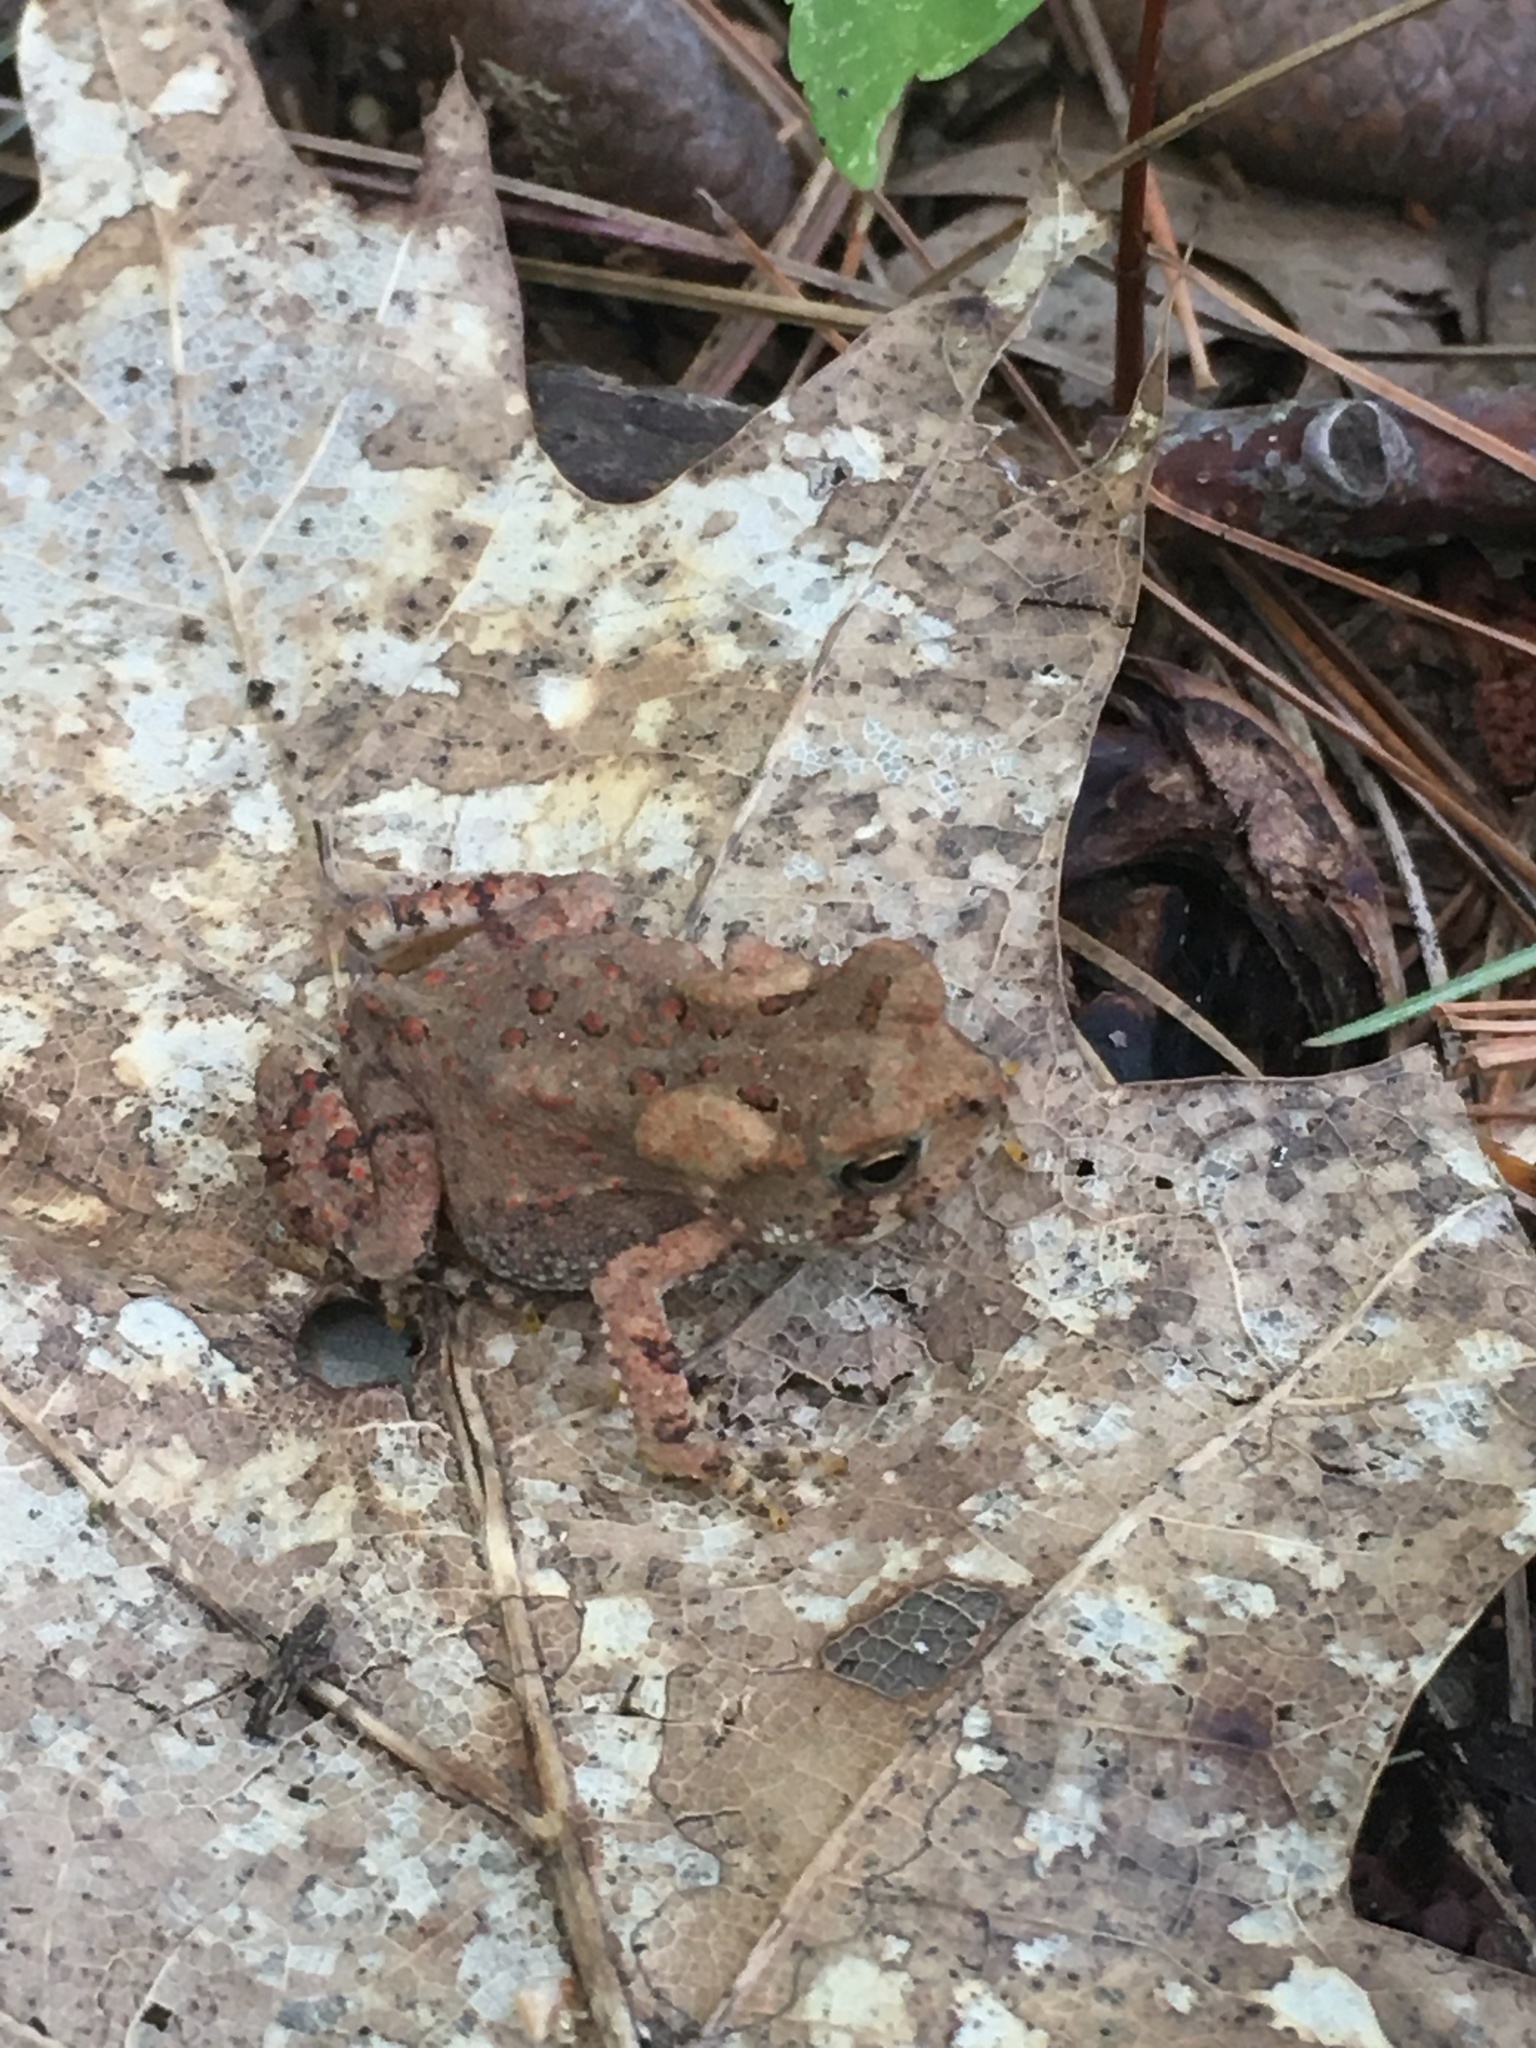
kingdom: Animalia
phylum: Chordata
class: Amphibia
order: Anura
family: Bufonidae
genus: Anaxyrus
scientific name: Anaxyrus americanus
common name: American toad
